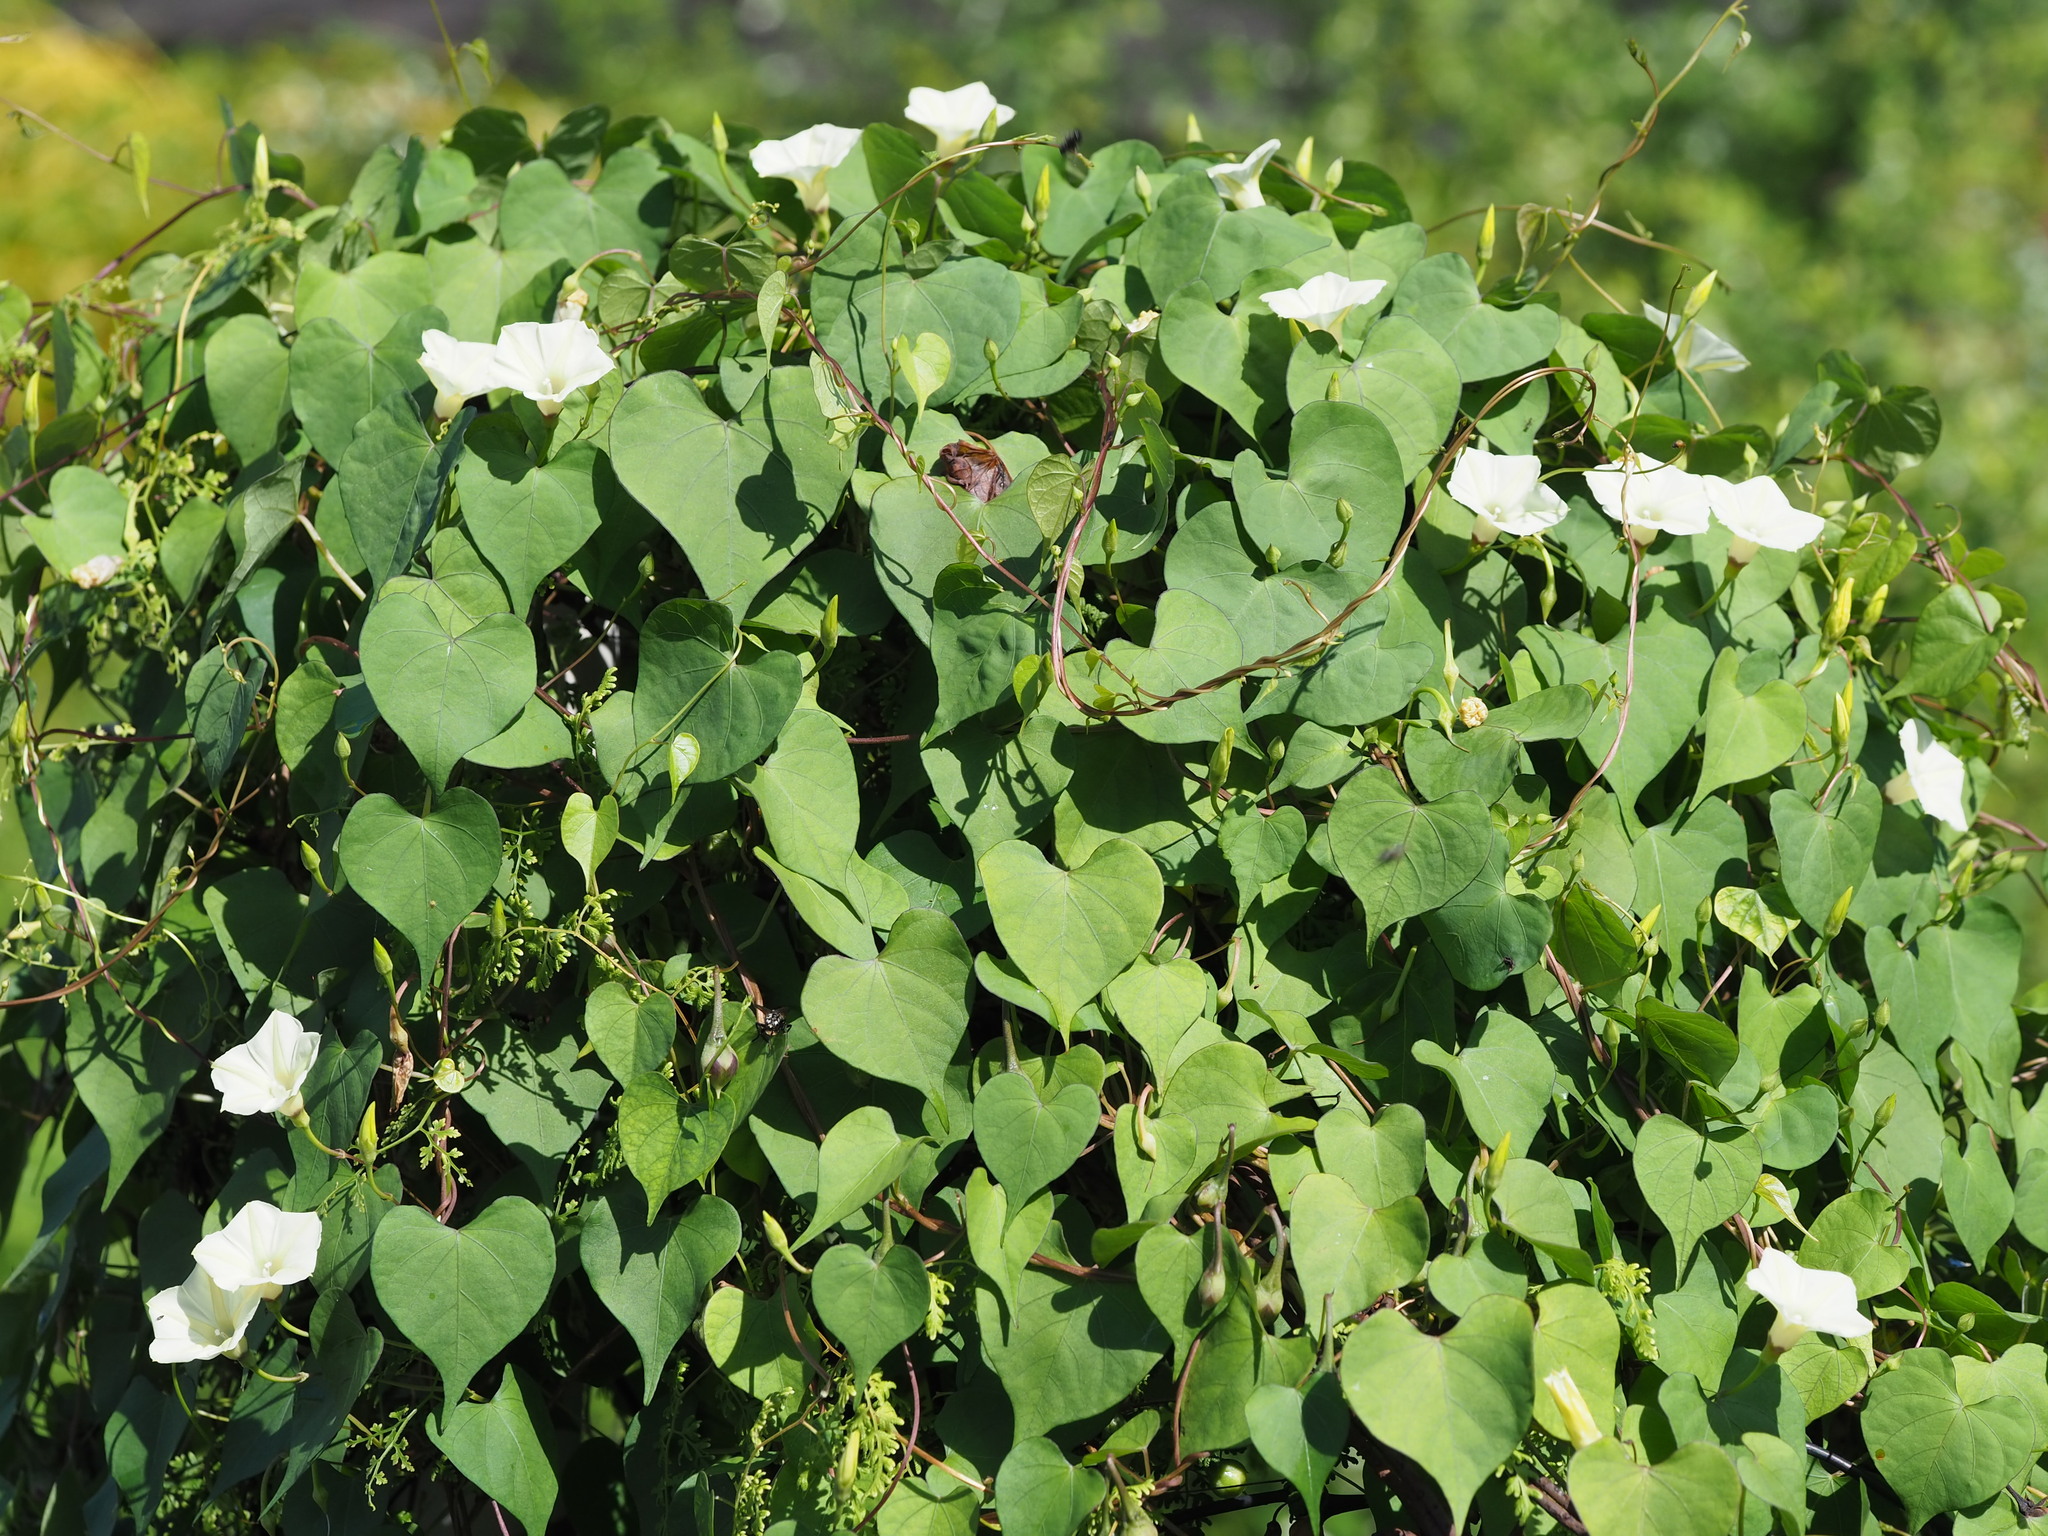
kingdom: Plantae
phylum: Tracheophyta
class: Magnoliopsida
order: Solanales
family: Convolvulaceae
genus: Ipomoea
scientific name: Ipomoea obscura
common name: Obscure morning-glory
